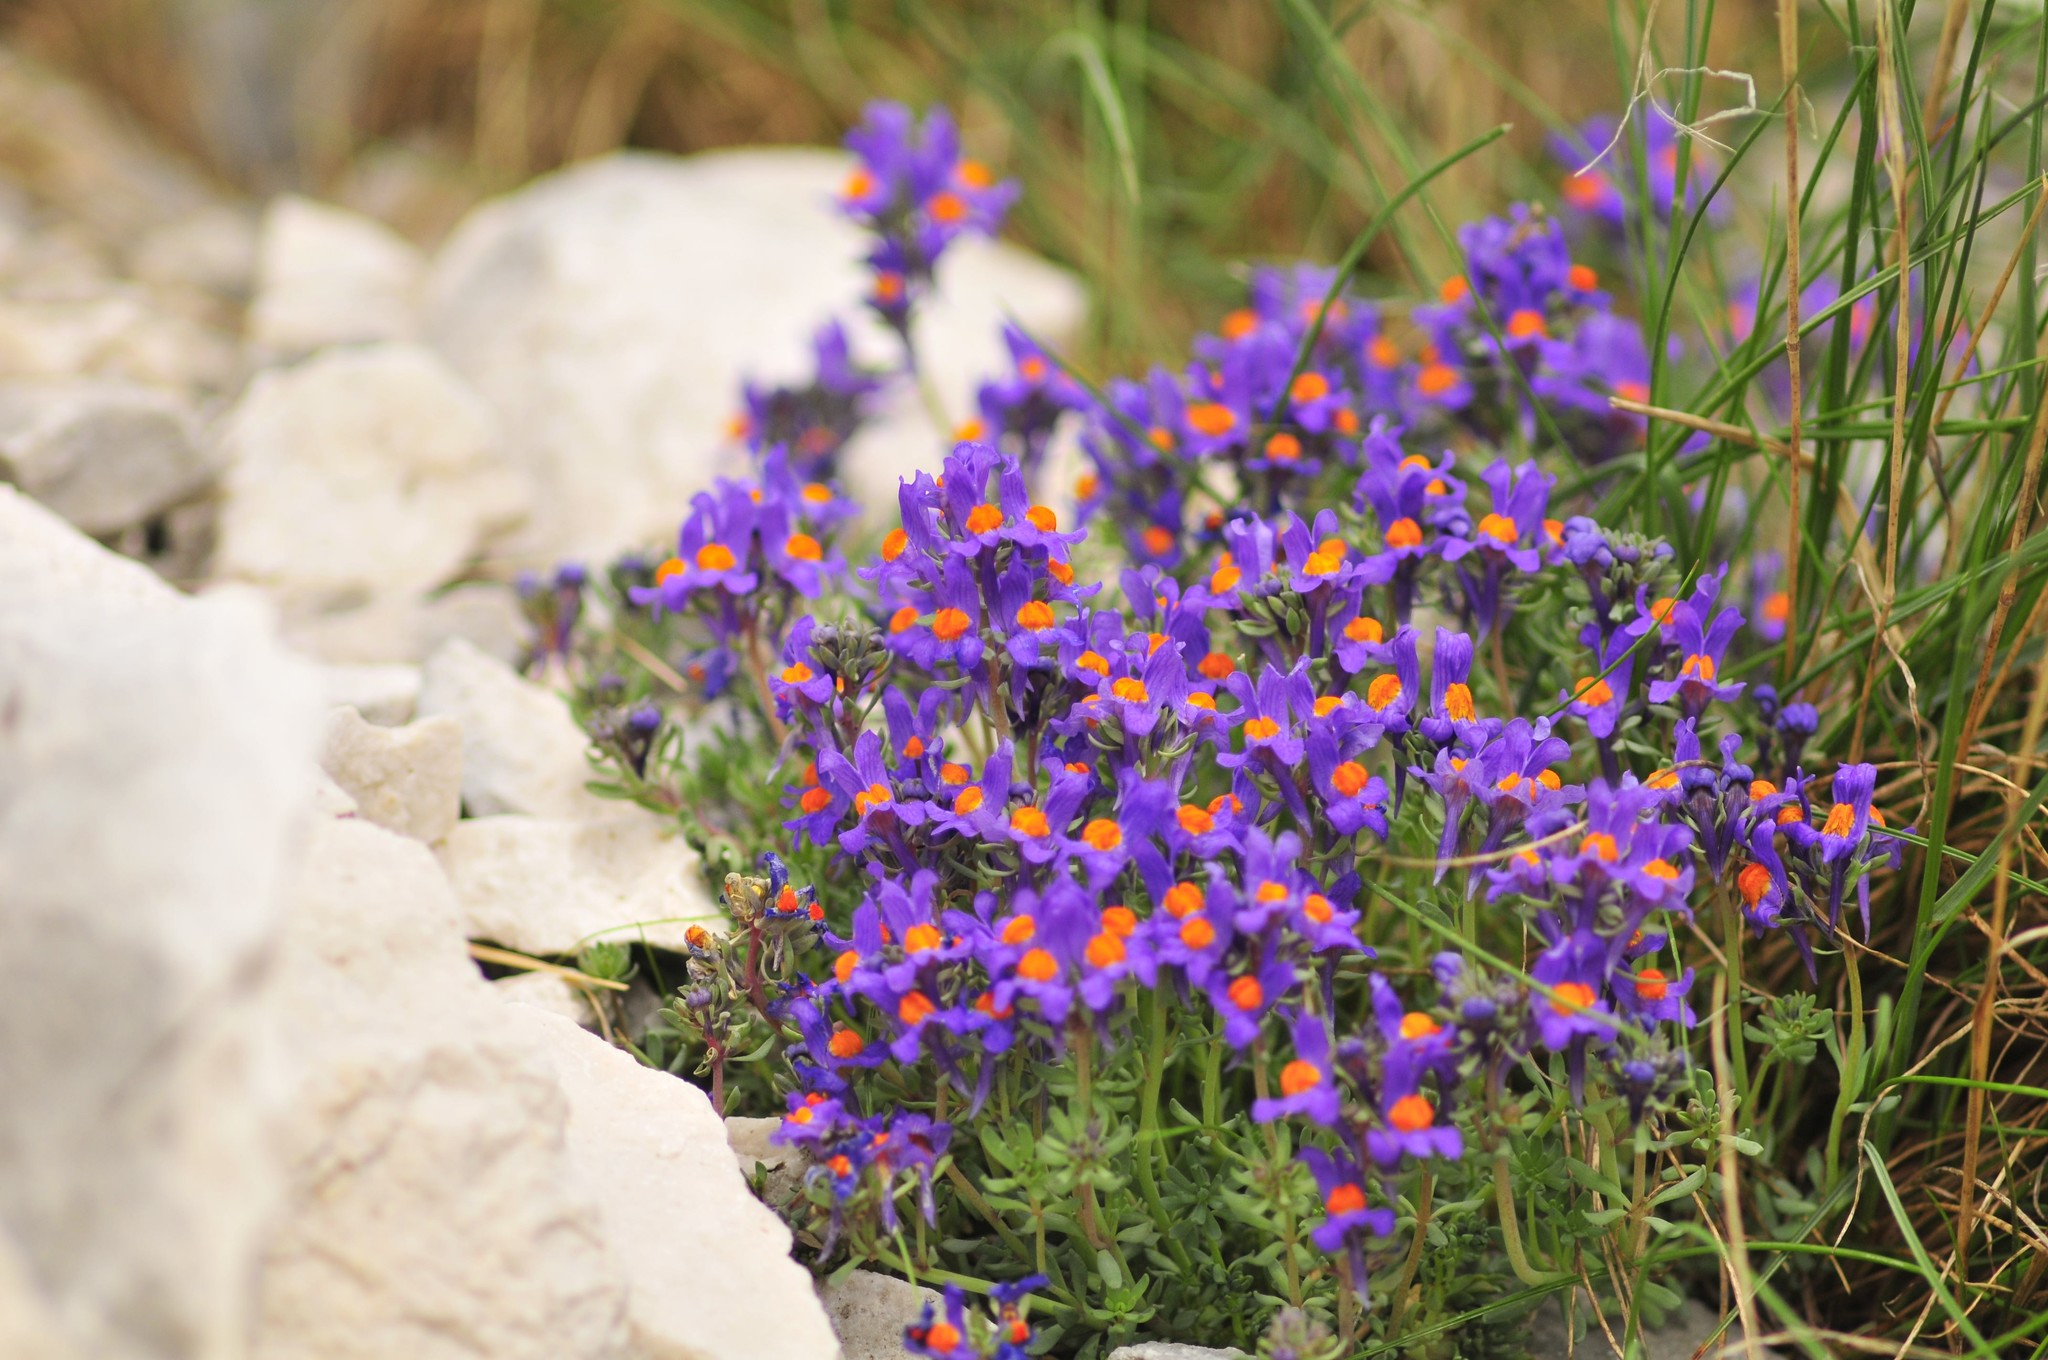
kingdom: Plantae
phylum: Tracheophyta
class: Magnoliopsida
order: Lamiales
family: Plantaginaceae
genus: Linaria
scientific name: Linaria alpina
